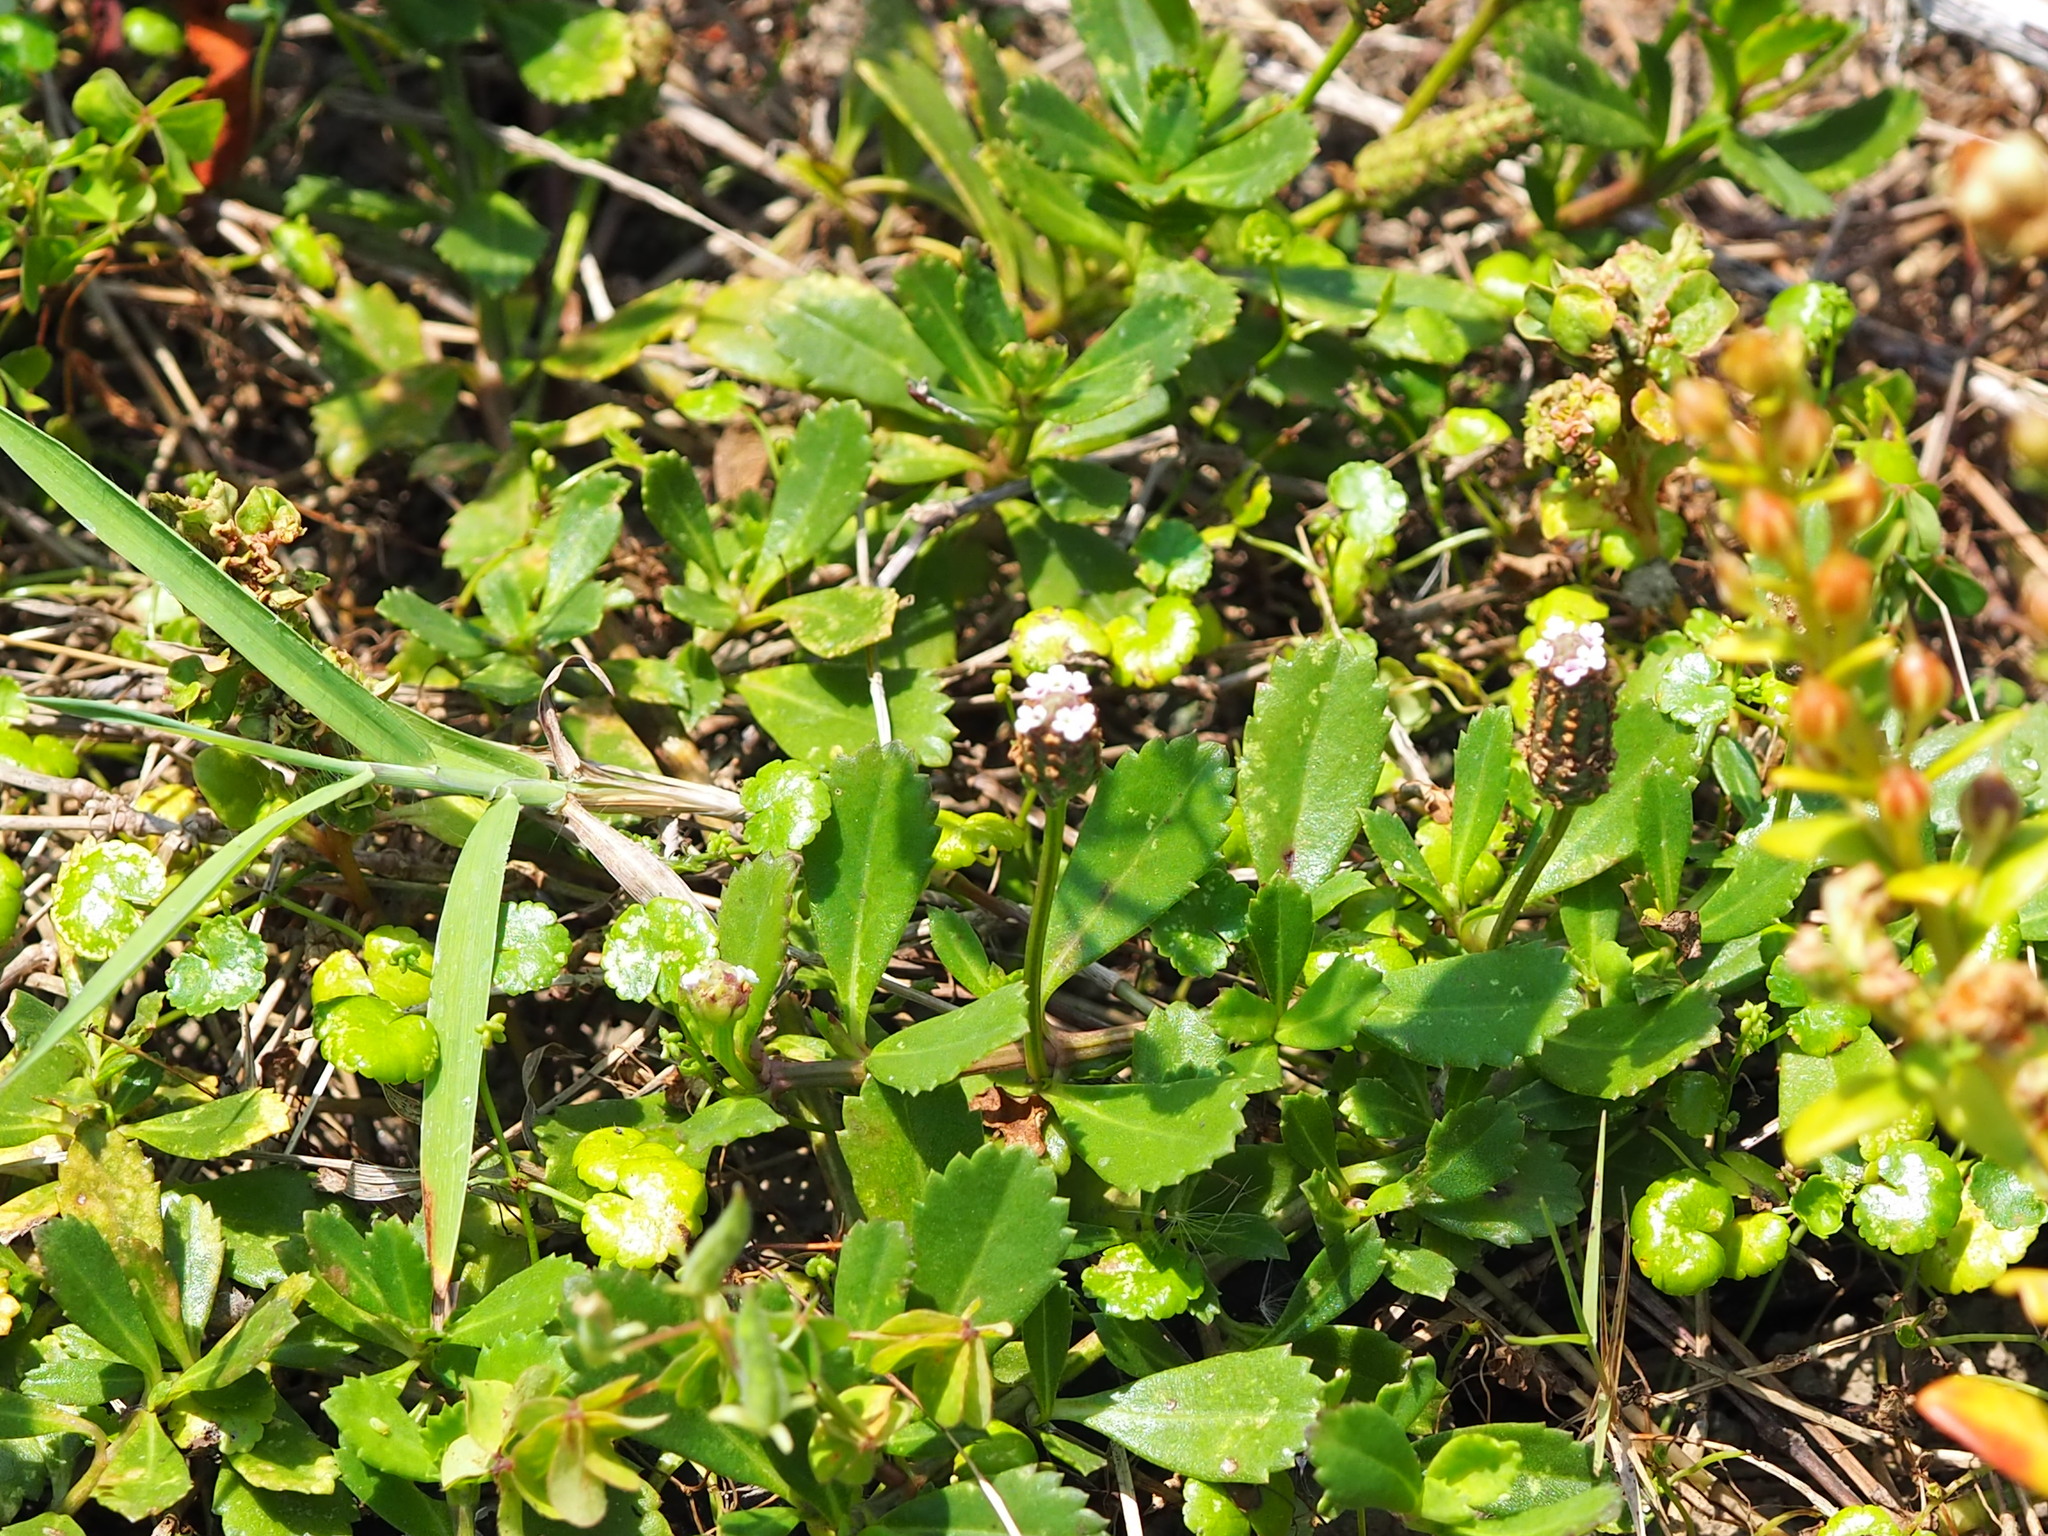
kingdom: Plantae
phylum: Tracheophyta
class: Magnoliopsida
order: Lamiales
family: Verbenaceae
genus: Phyla
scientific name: Phyla nodiflora
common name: Frogfruit
